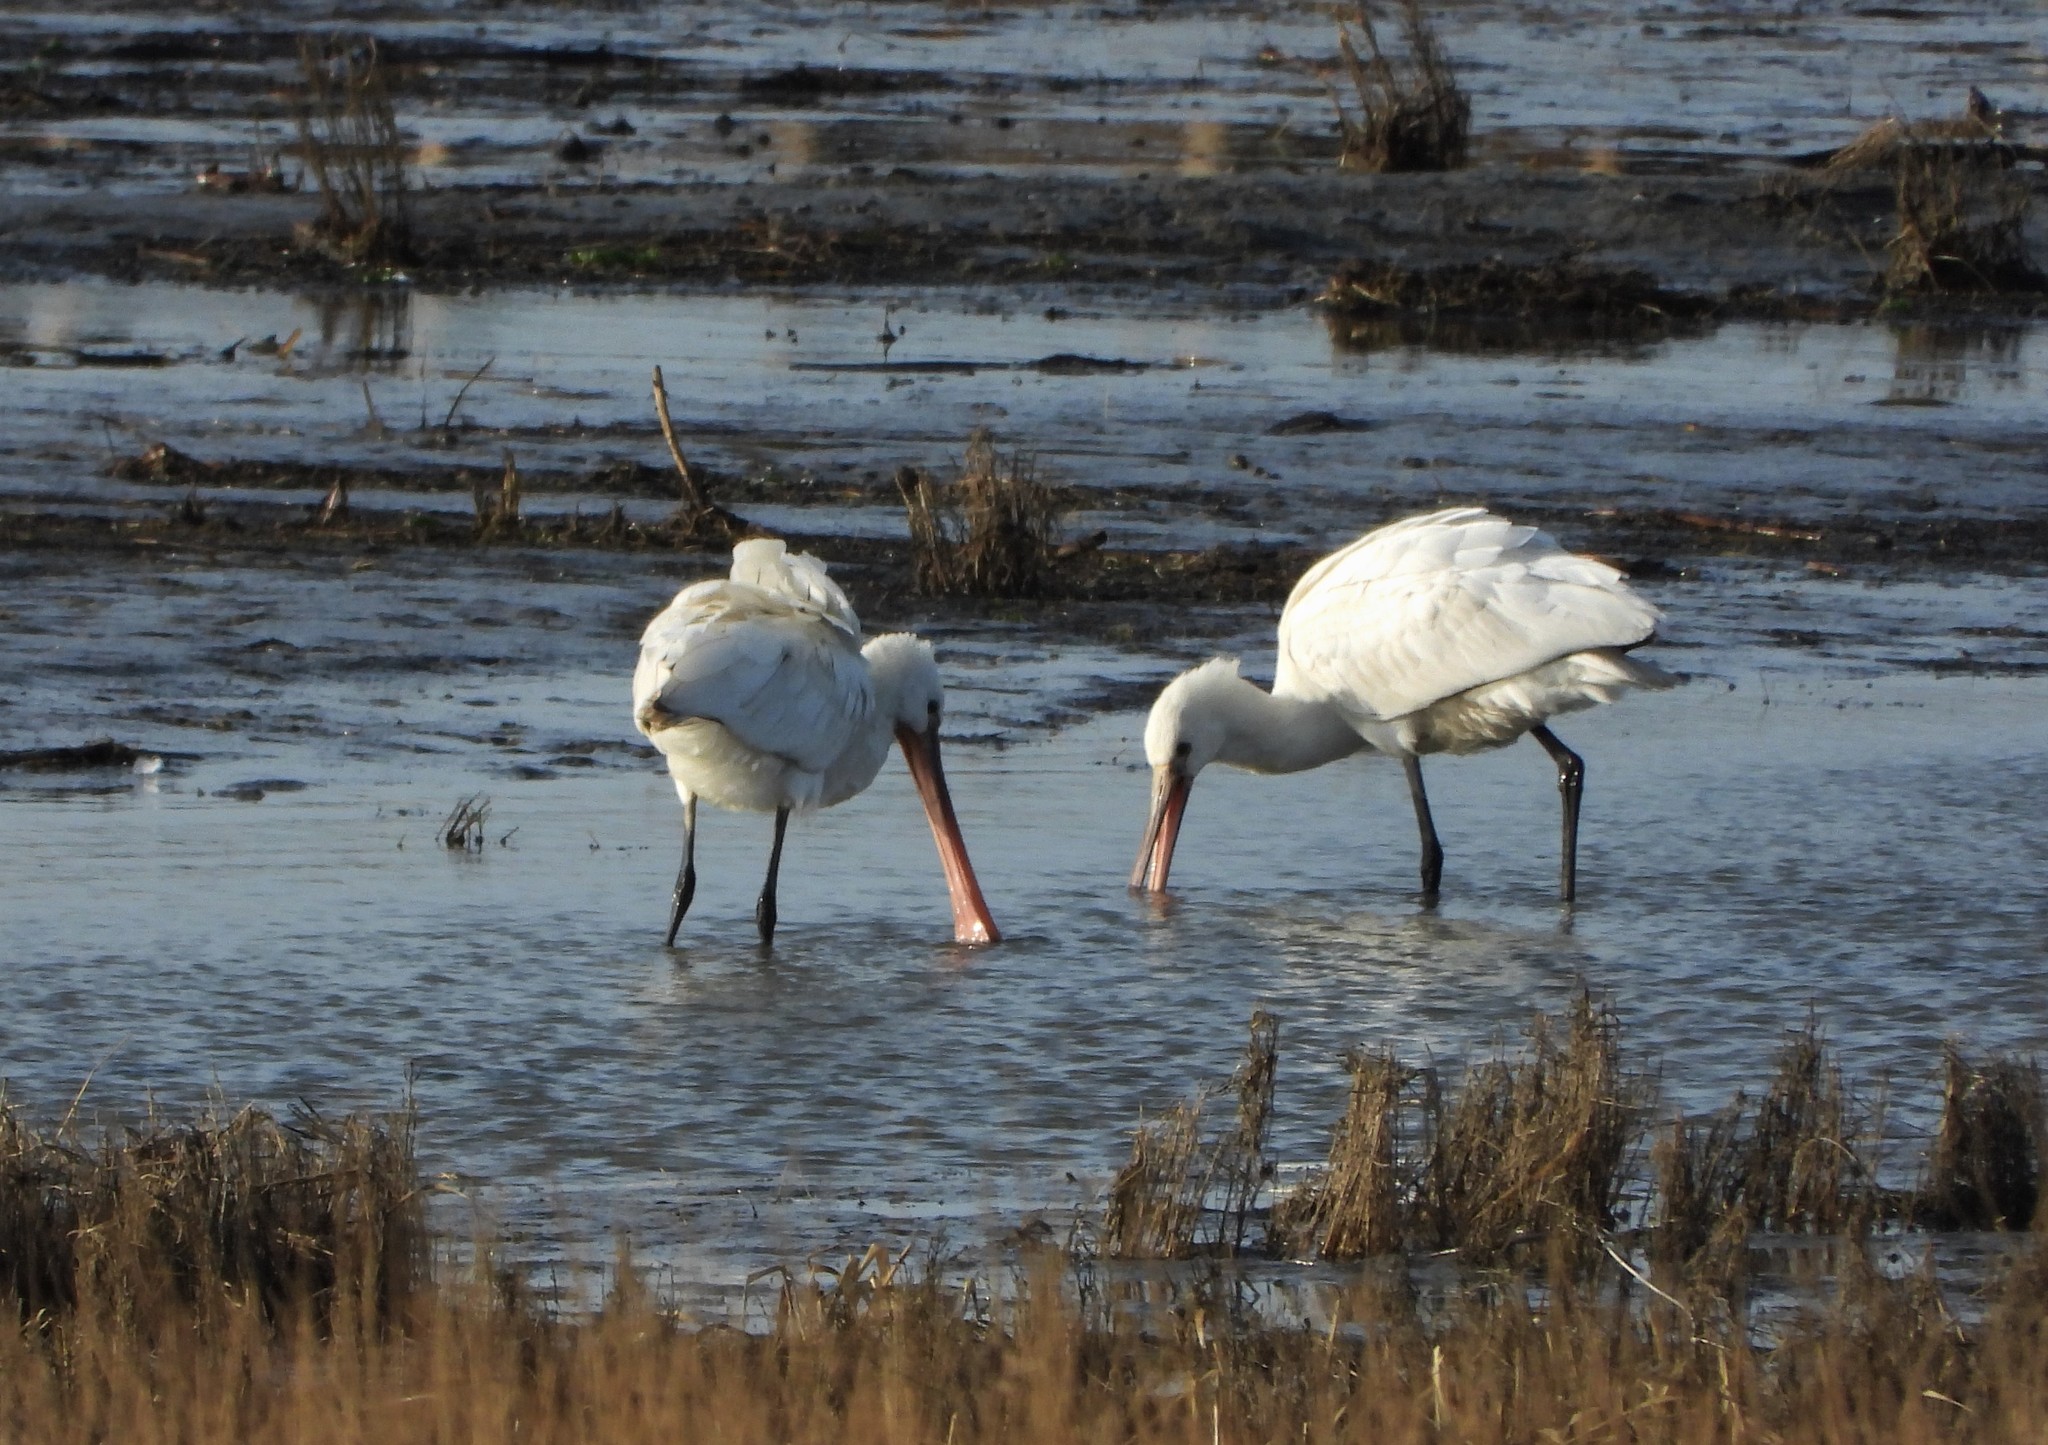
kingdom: Animalia
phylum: Chordata
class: Aves
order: Pelecaniformes
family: Threskiornithidae
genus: Platalea
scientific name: Platalea leucorodia
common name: Eurasian spoonbill
